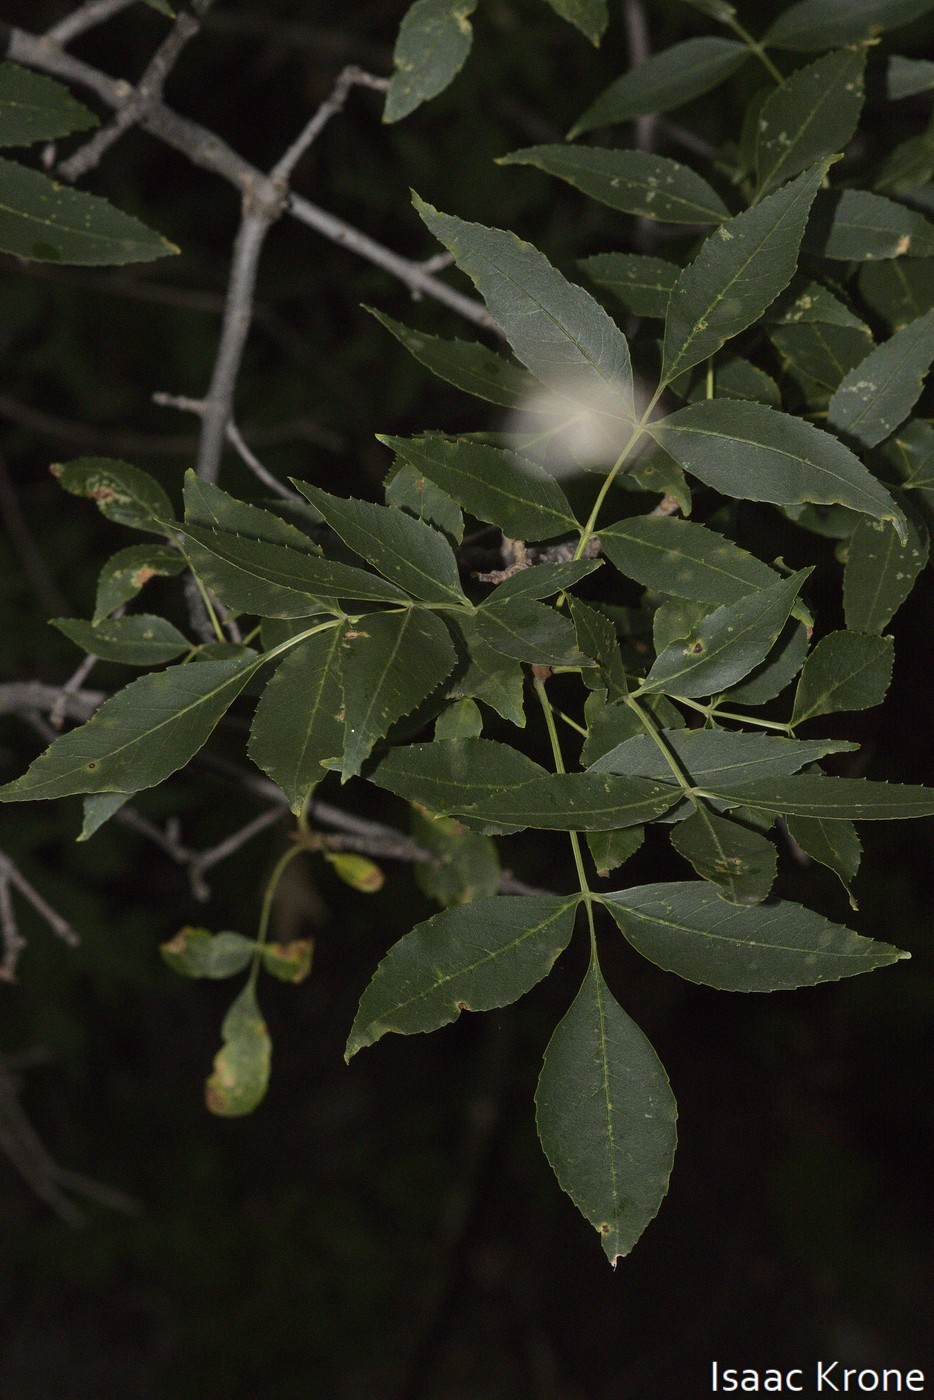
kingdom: Plantae
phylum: Tracheophyta
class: Magnoliopsida
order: Lamiales
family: Oleaceae
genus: Fraxinus
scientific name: Fraxinus pennsylvanica
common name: Green ash
